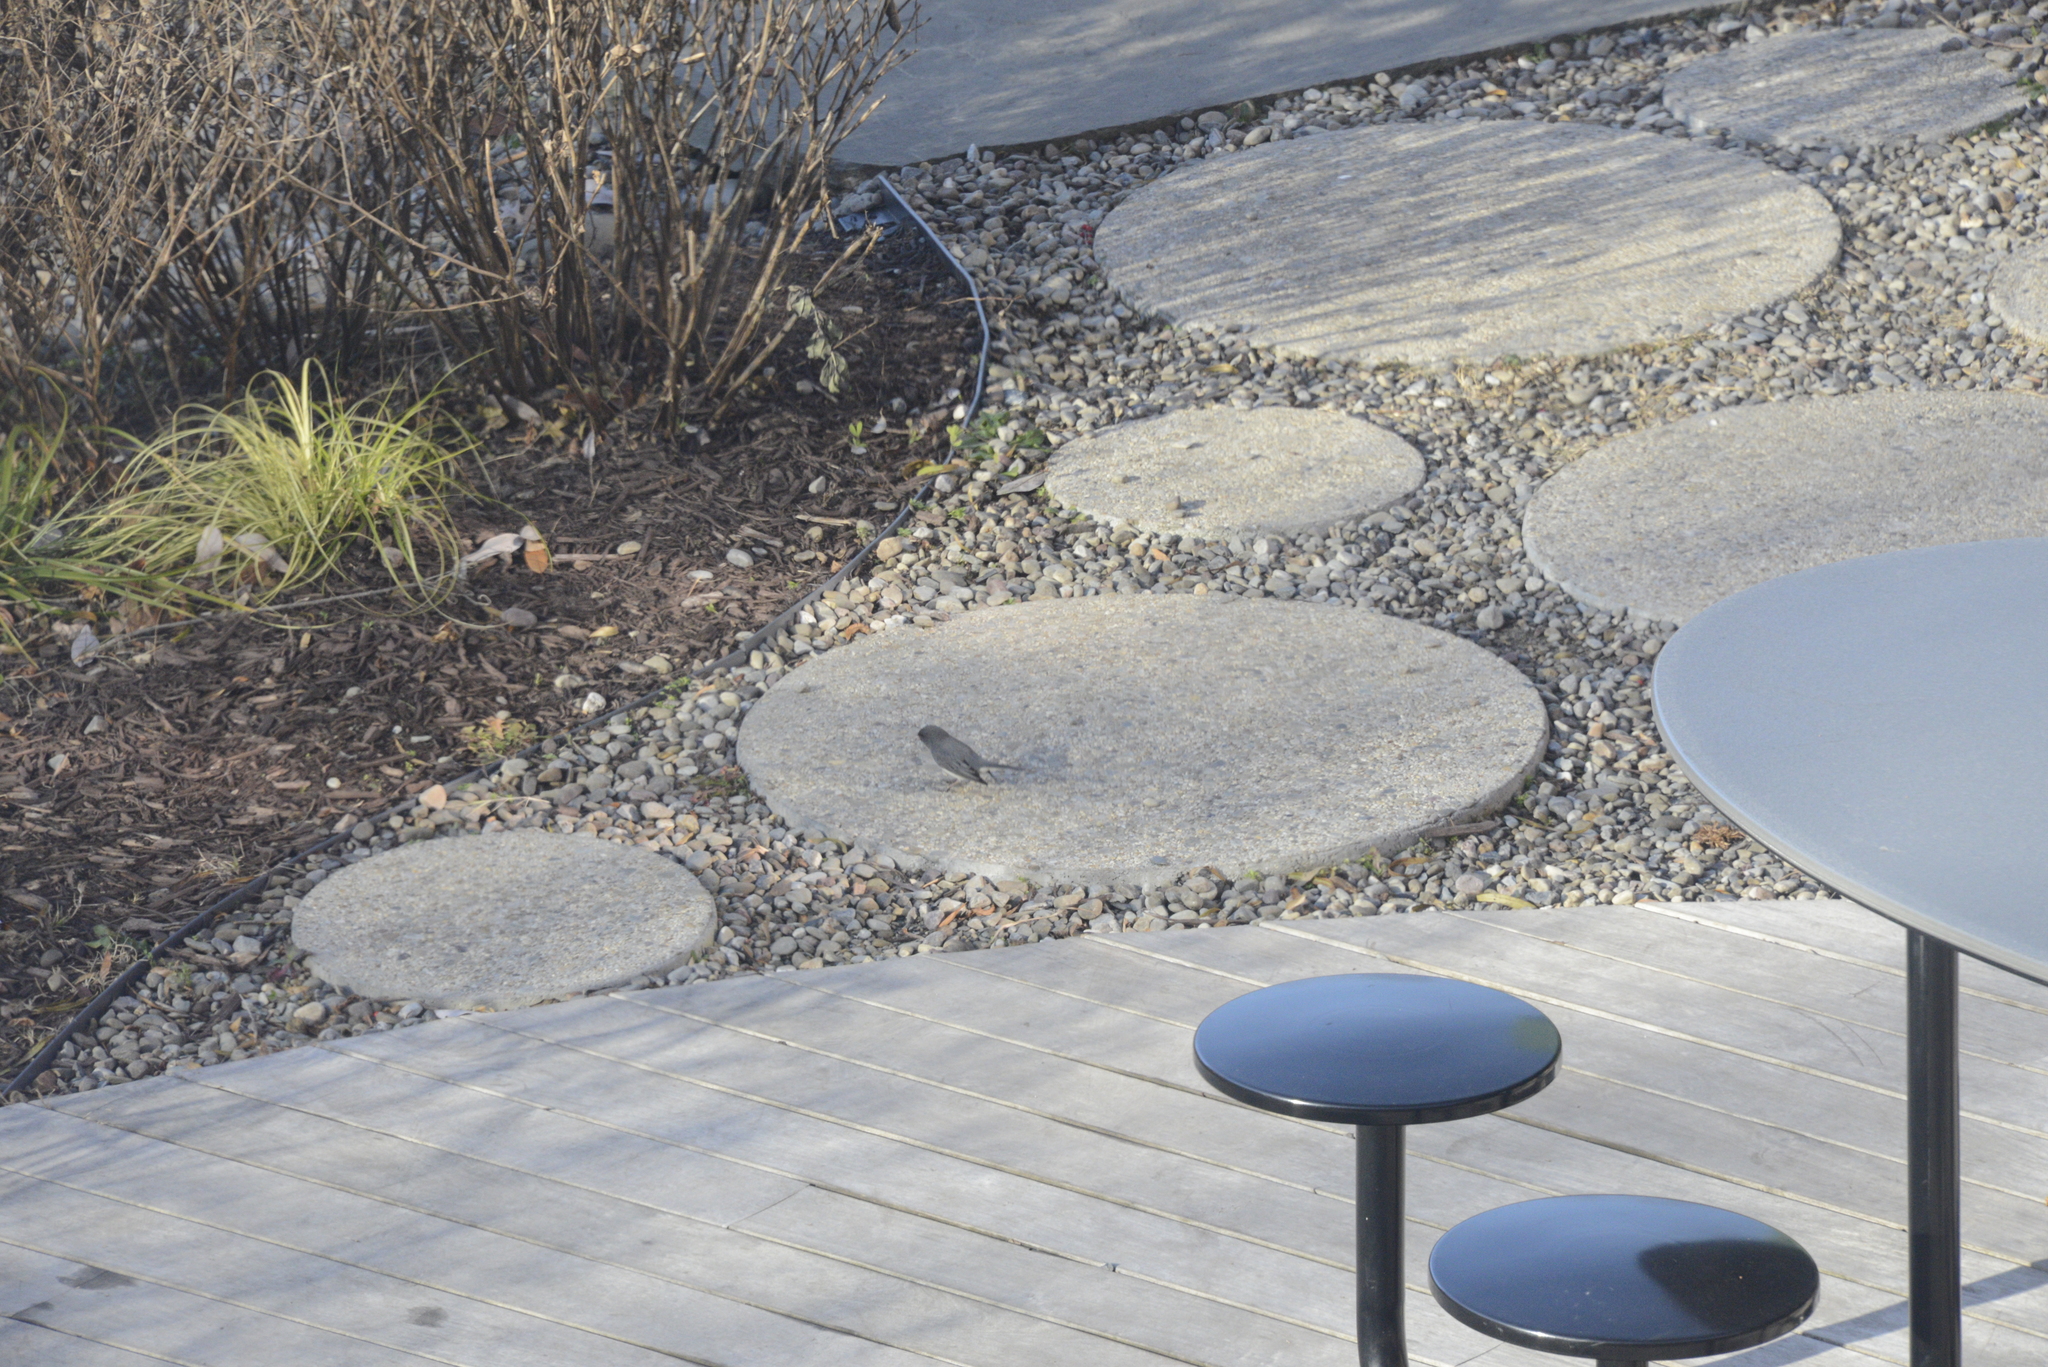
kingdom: Animalia
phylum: Chordata
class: Aves
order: Passeriformes
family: Passerellidae
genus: Junco
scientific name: Junco hyemalis
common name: Dark-eyed junco
